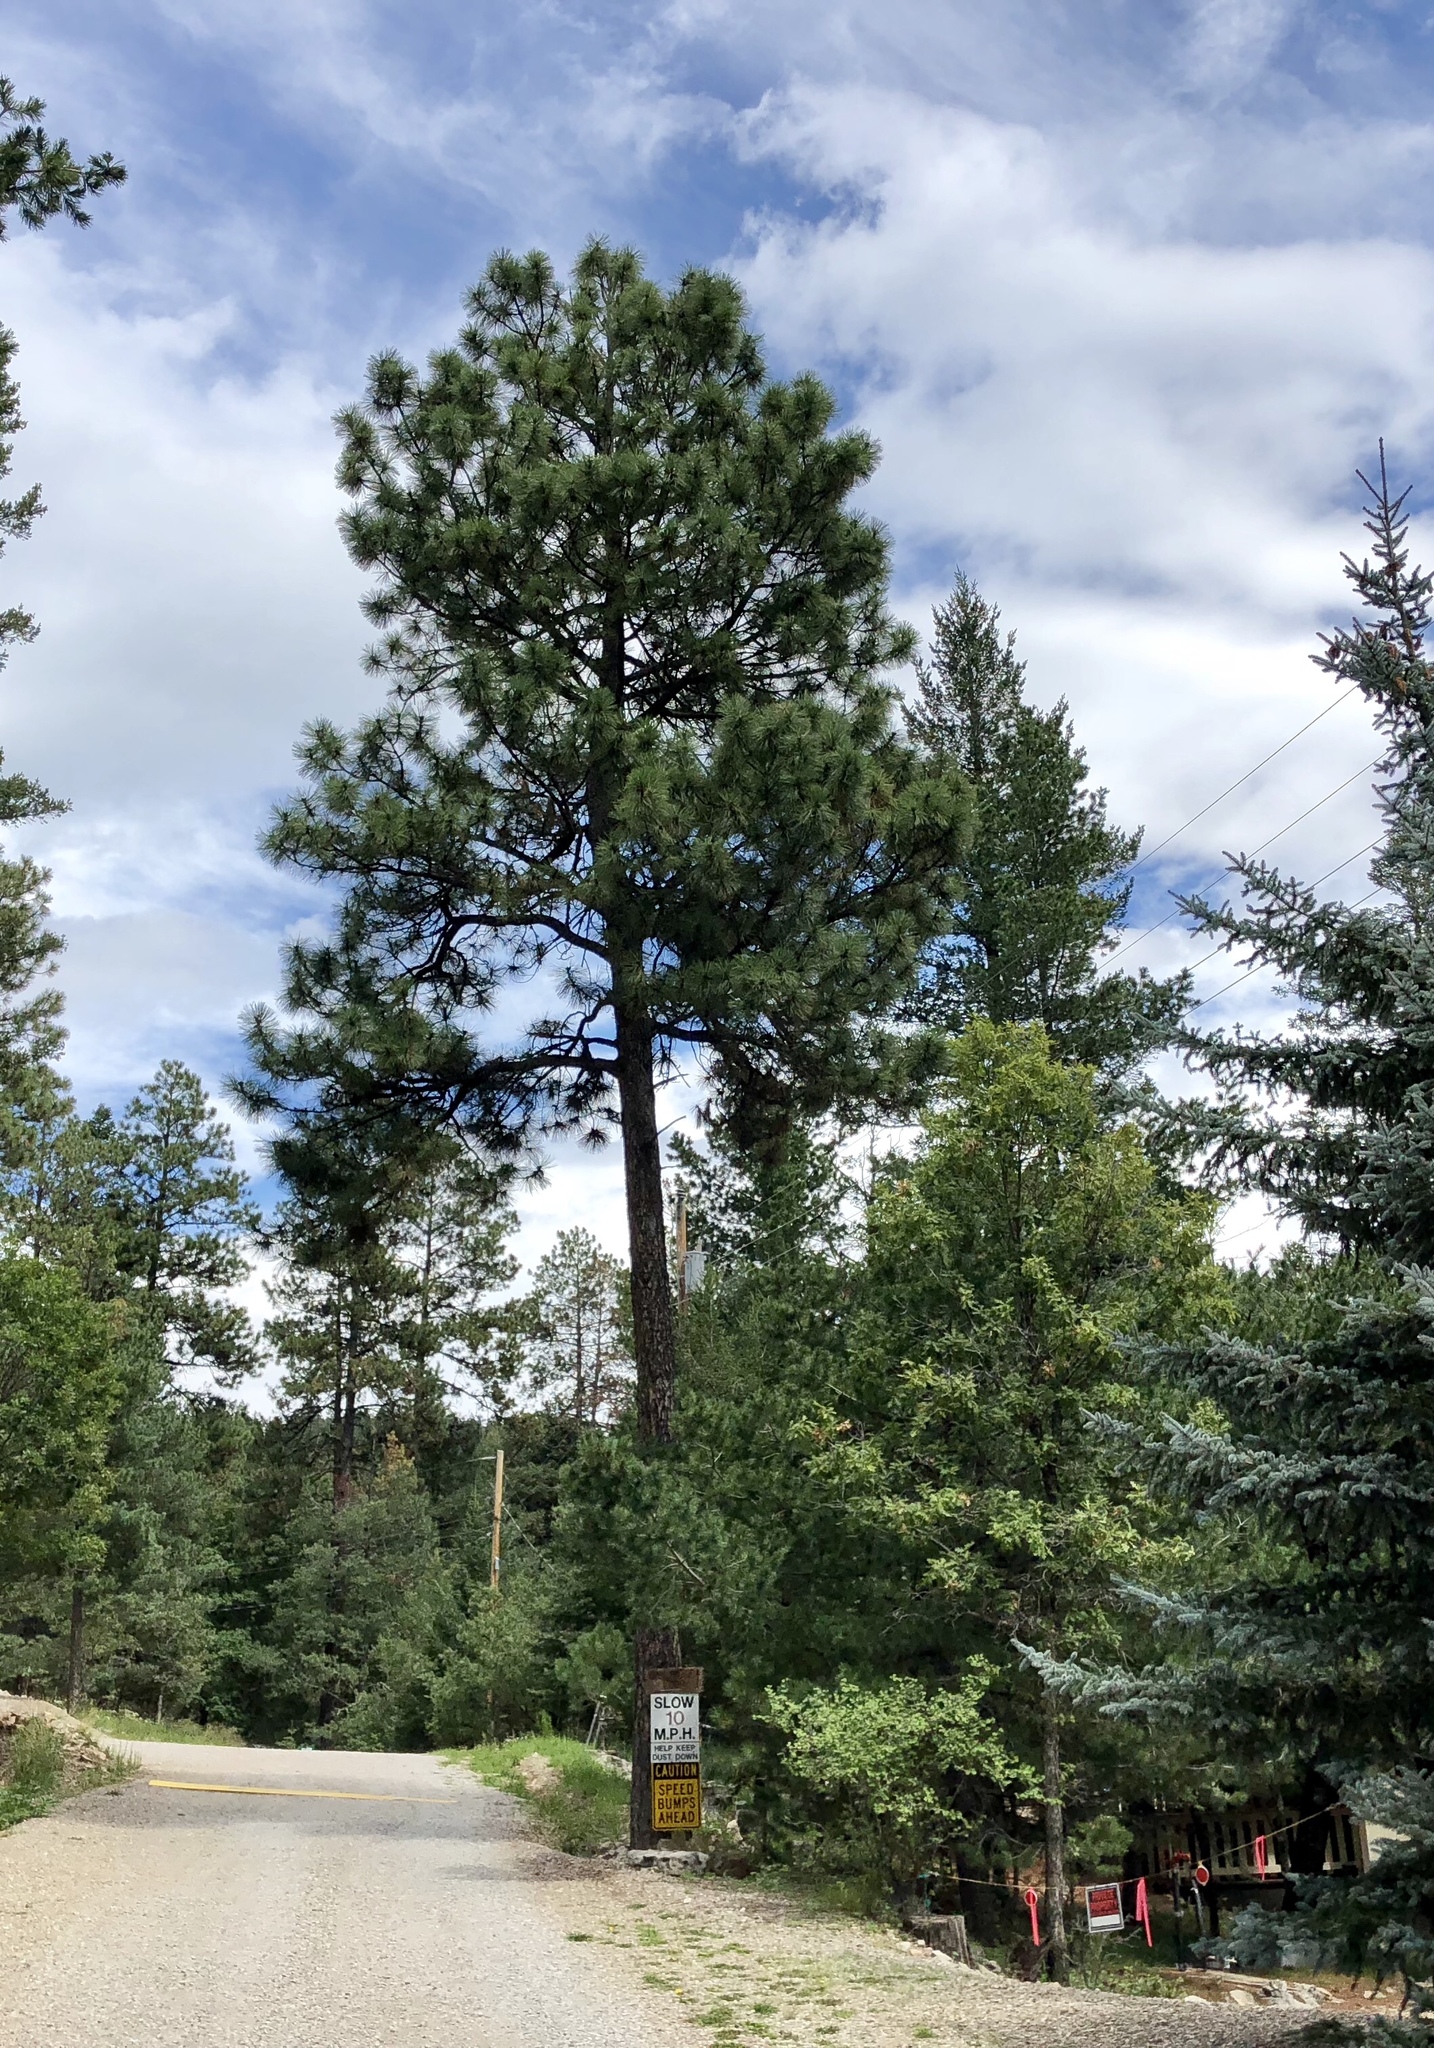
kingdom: Plantae
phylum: Tracheophyta
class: Pinopsida
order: Pinales
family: Pinaceae
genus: Pinus
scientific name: Pinus ponderosa
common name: Western yellow-pine
